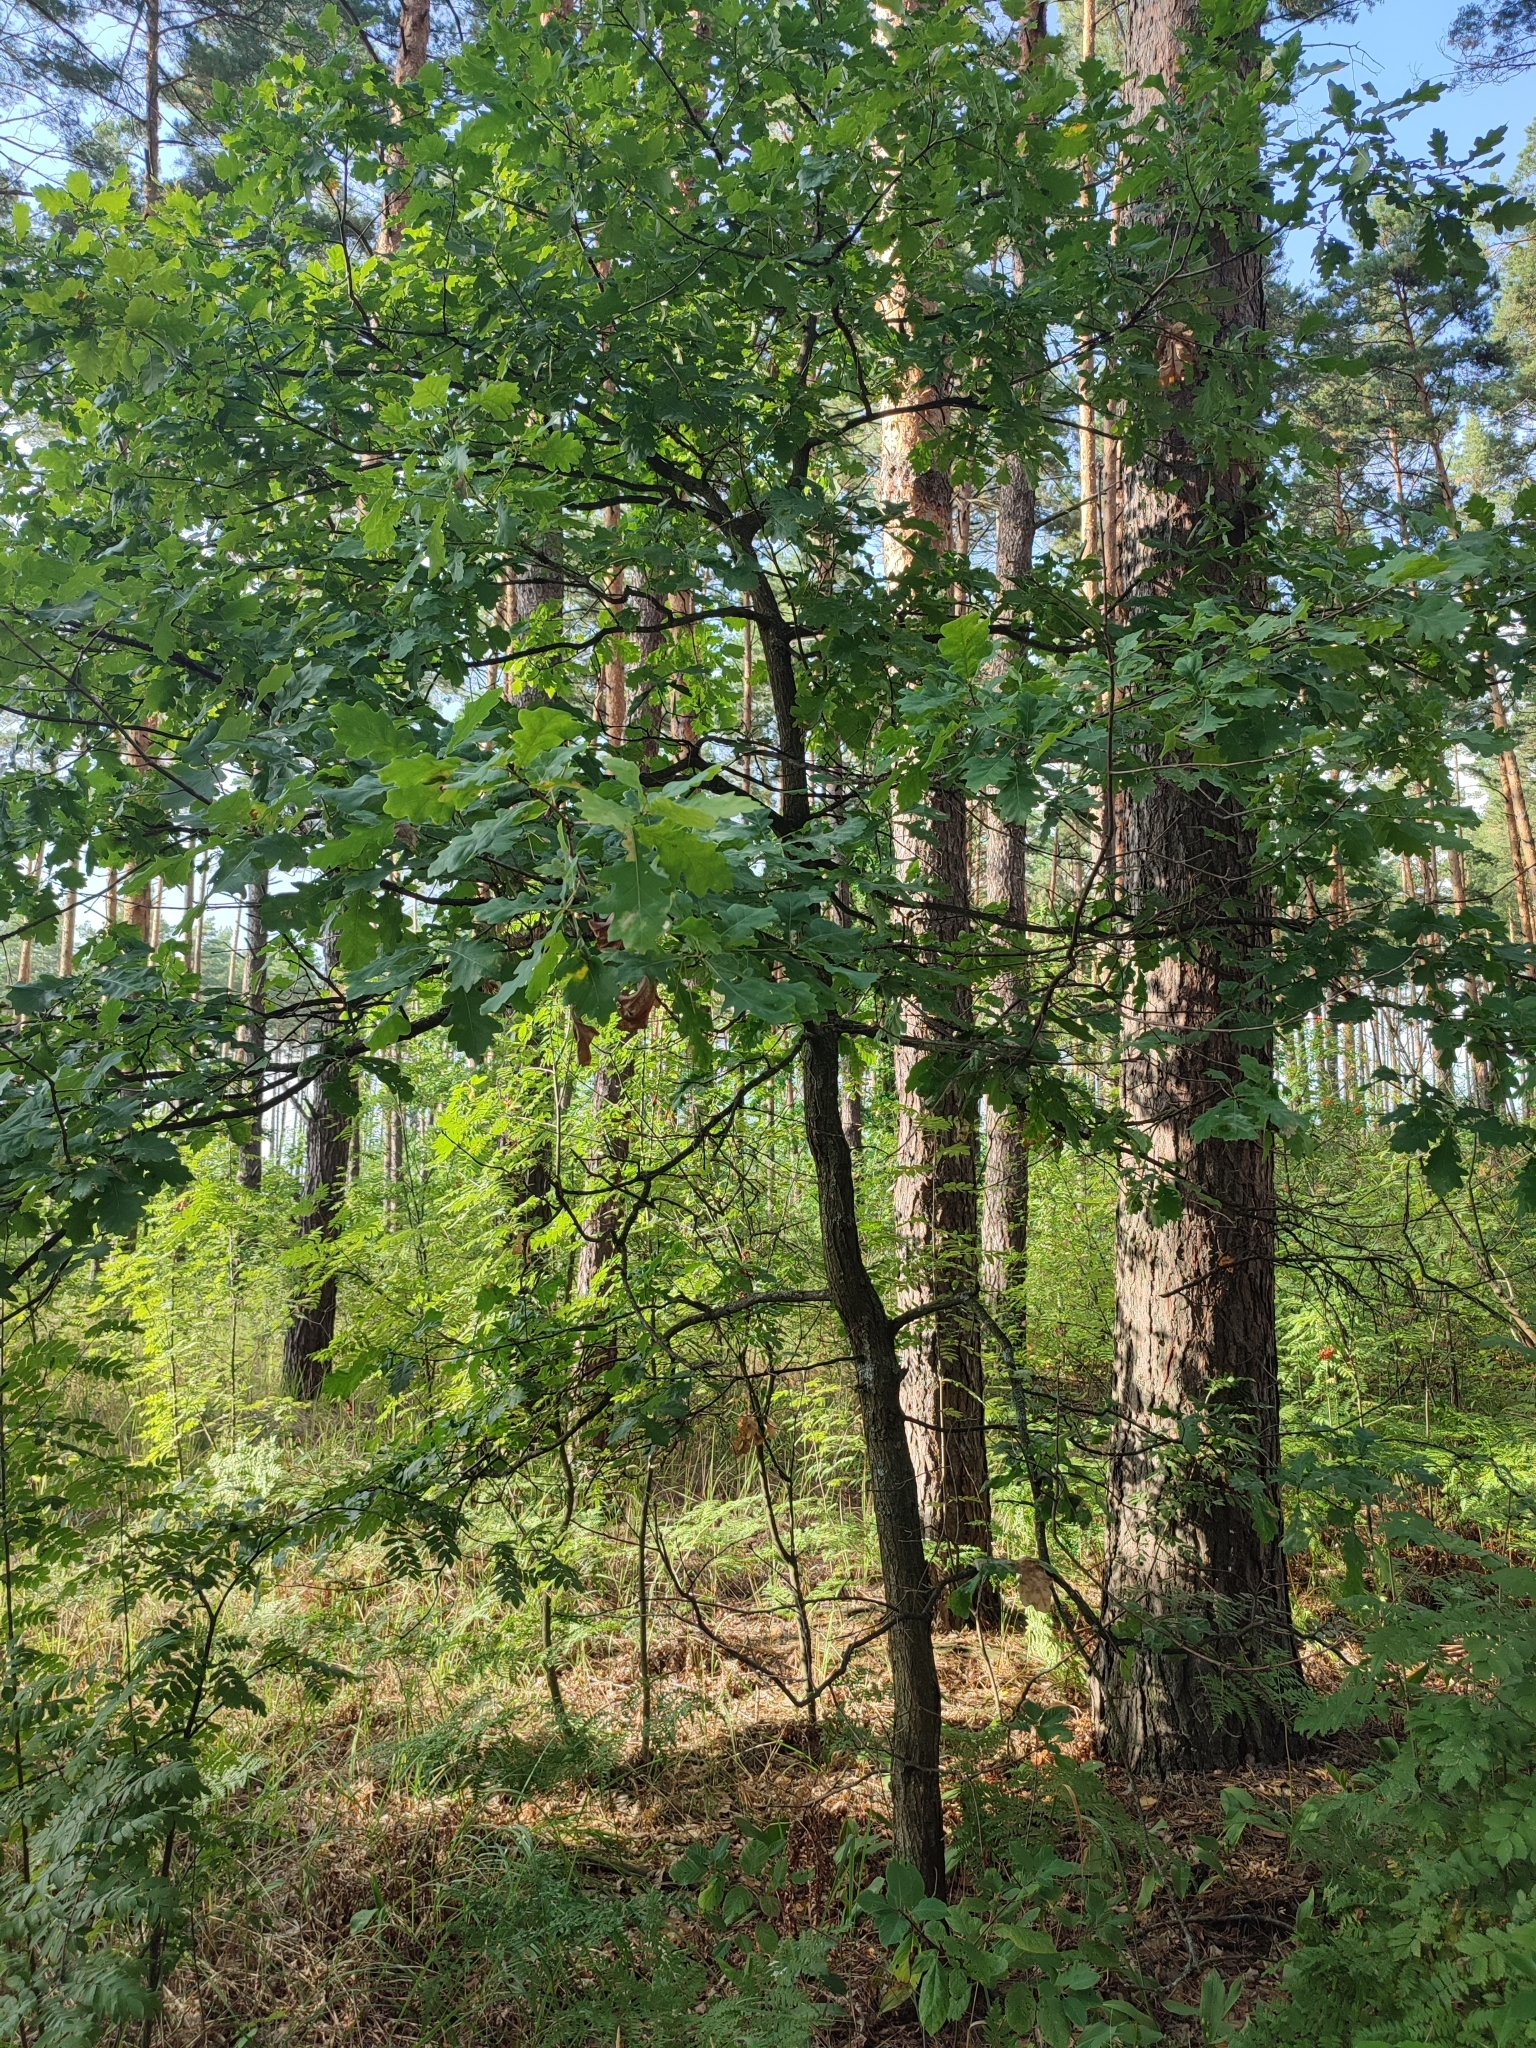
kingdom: Plantae
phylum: Tracheophyta
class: Magnoliopsida
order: Fagales
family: Fagaceae
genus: Quercus
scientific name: Quercus robur
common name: Pedunculate oak
